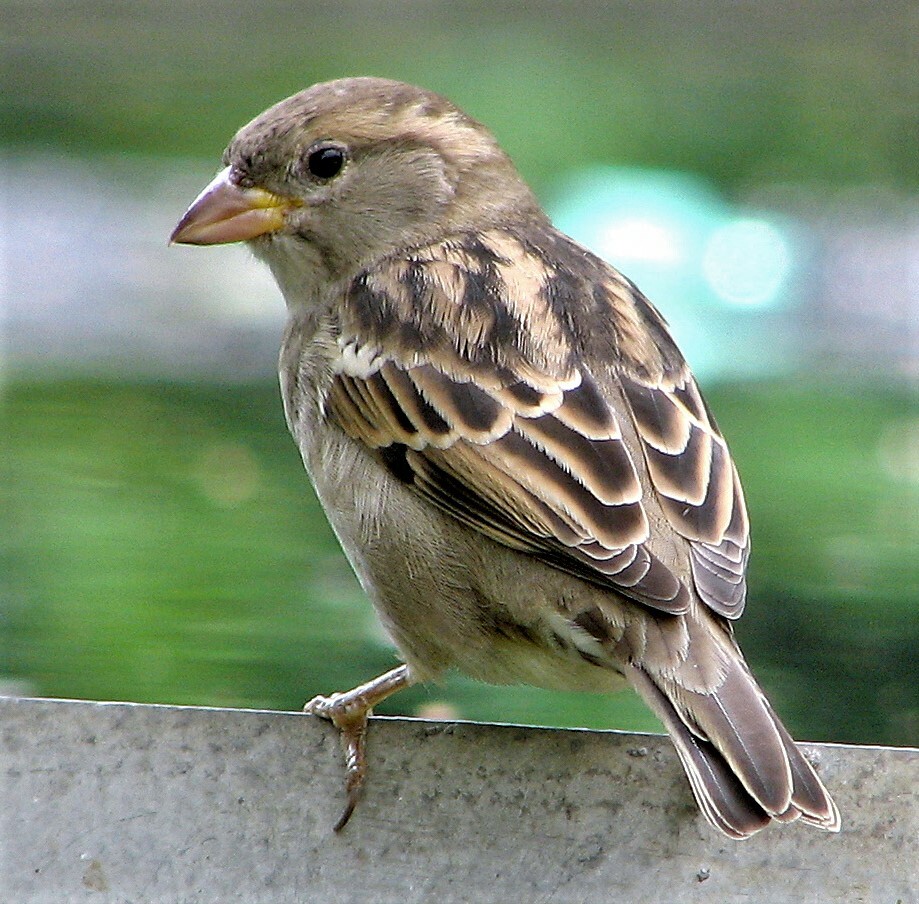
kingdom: Animalia
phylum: Chordata
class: Aves
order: Passeriformes
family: Passeridae
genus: Passer
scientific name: Passer domesticus
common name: House sparrow
